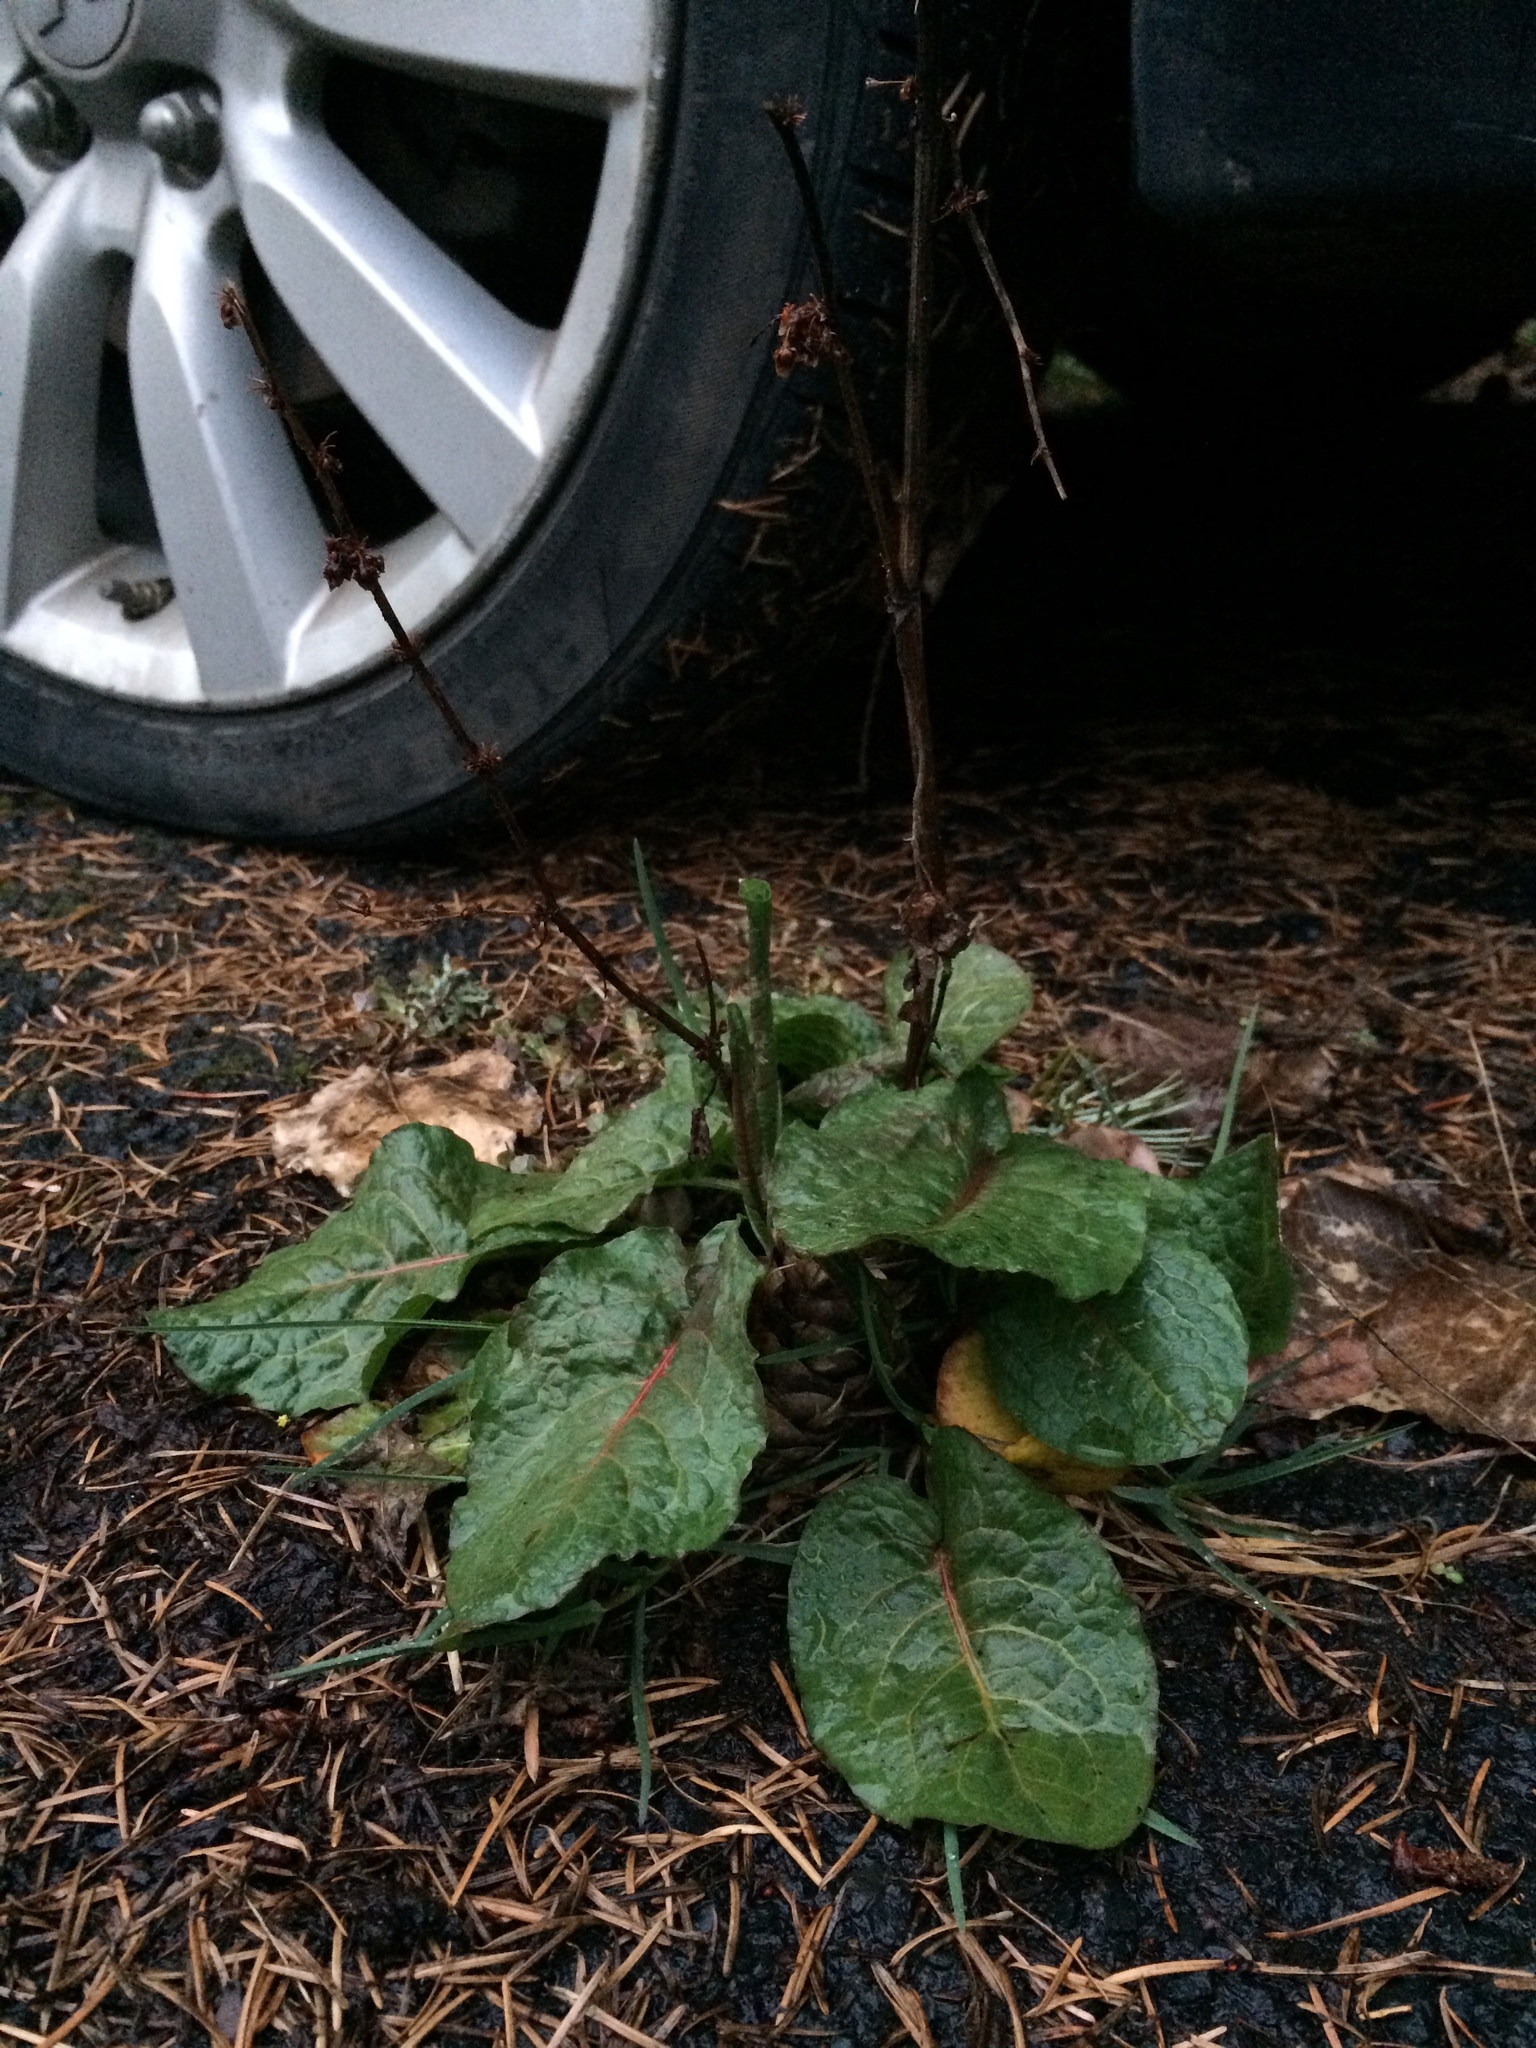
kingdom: Plantae
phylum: Tracheophyta
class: Magnoliopsida
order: Caryophyllales
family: Polygonaceae
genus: Rumex
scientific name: Rumex obtusifolius
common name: Bitter dock
